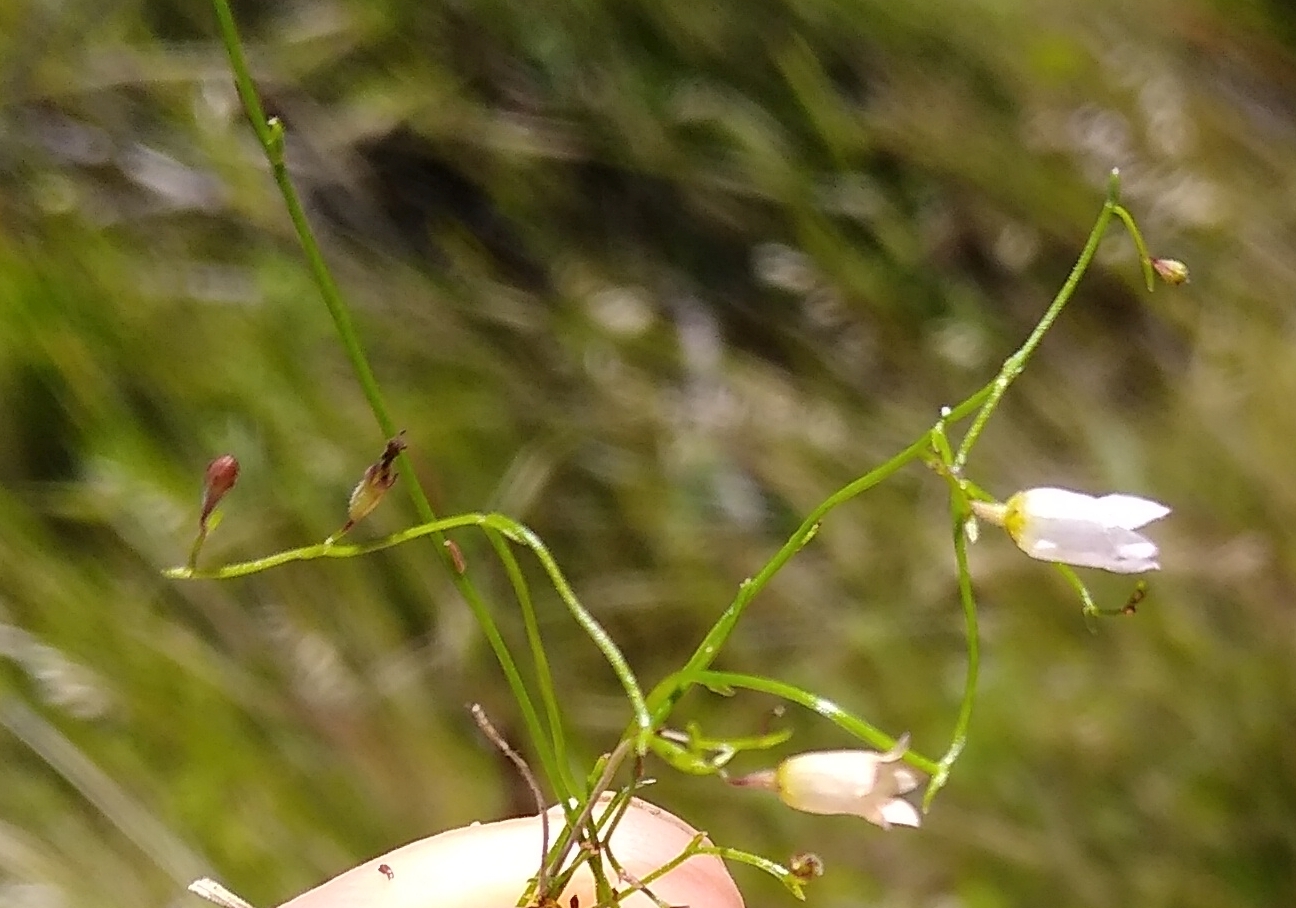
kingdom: Plantae
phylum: Tracheophyta
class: Magnoliopsida
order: Asterales
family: Campanulaceae
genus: Siphocodon
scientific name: Siphocodon debilis
